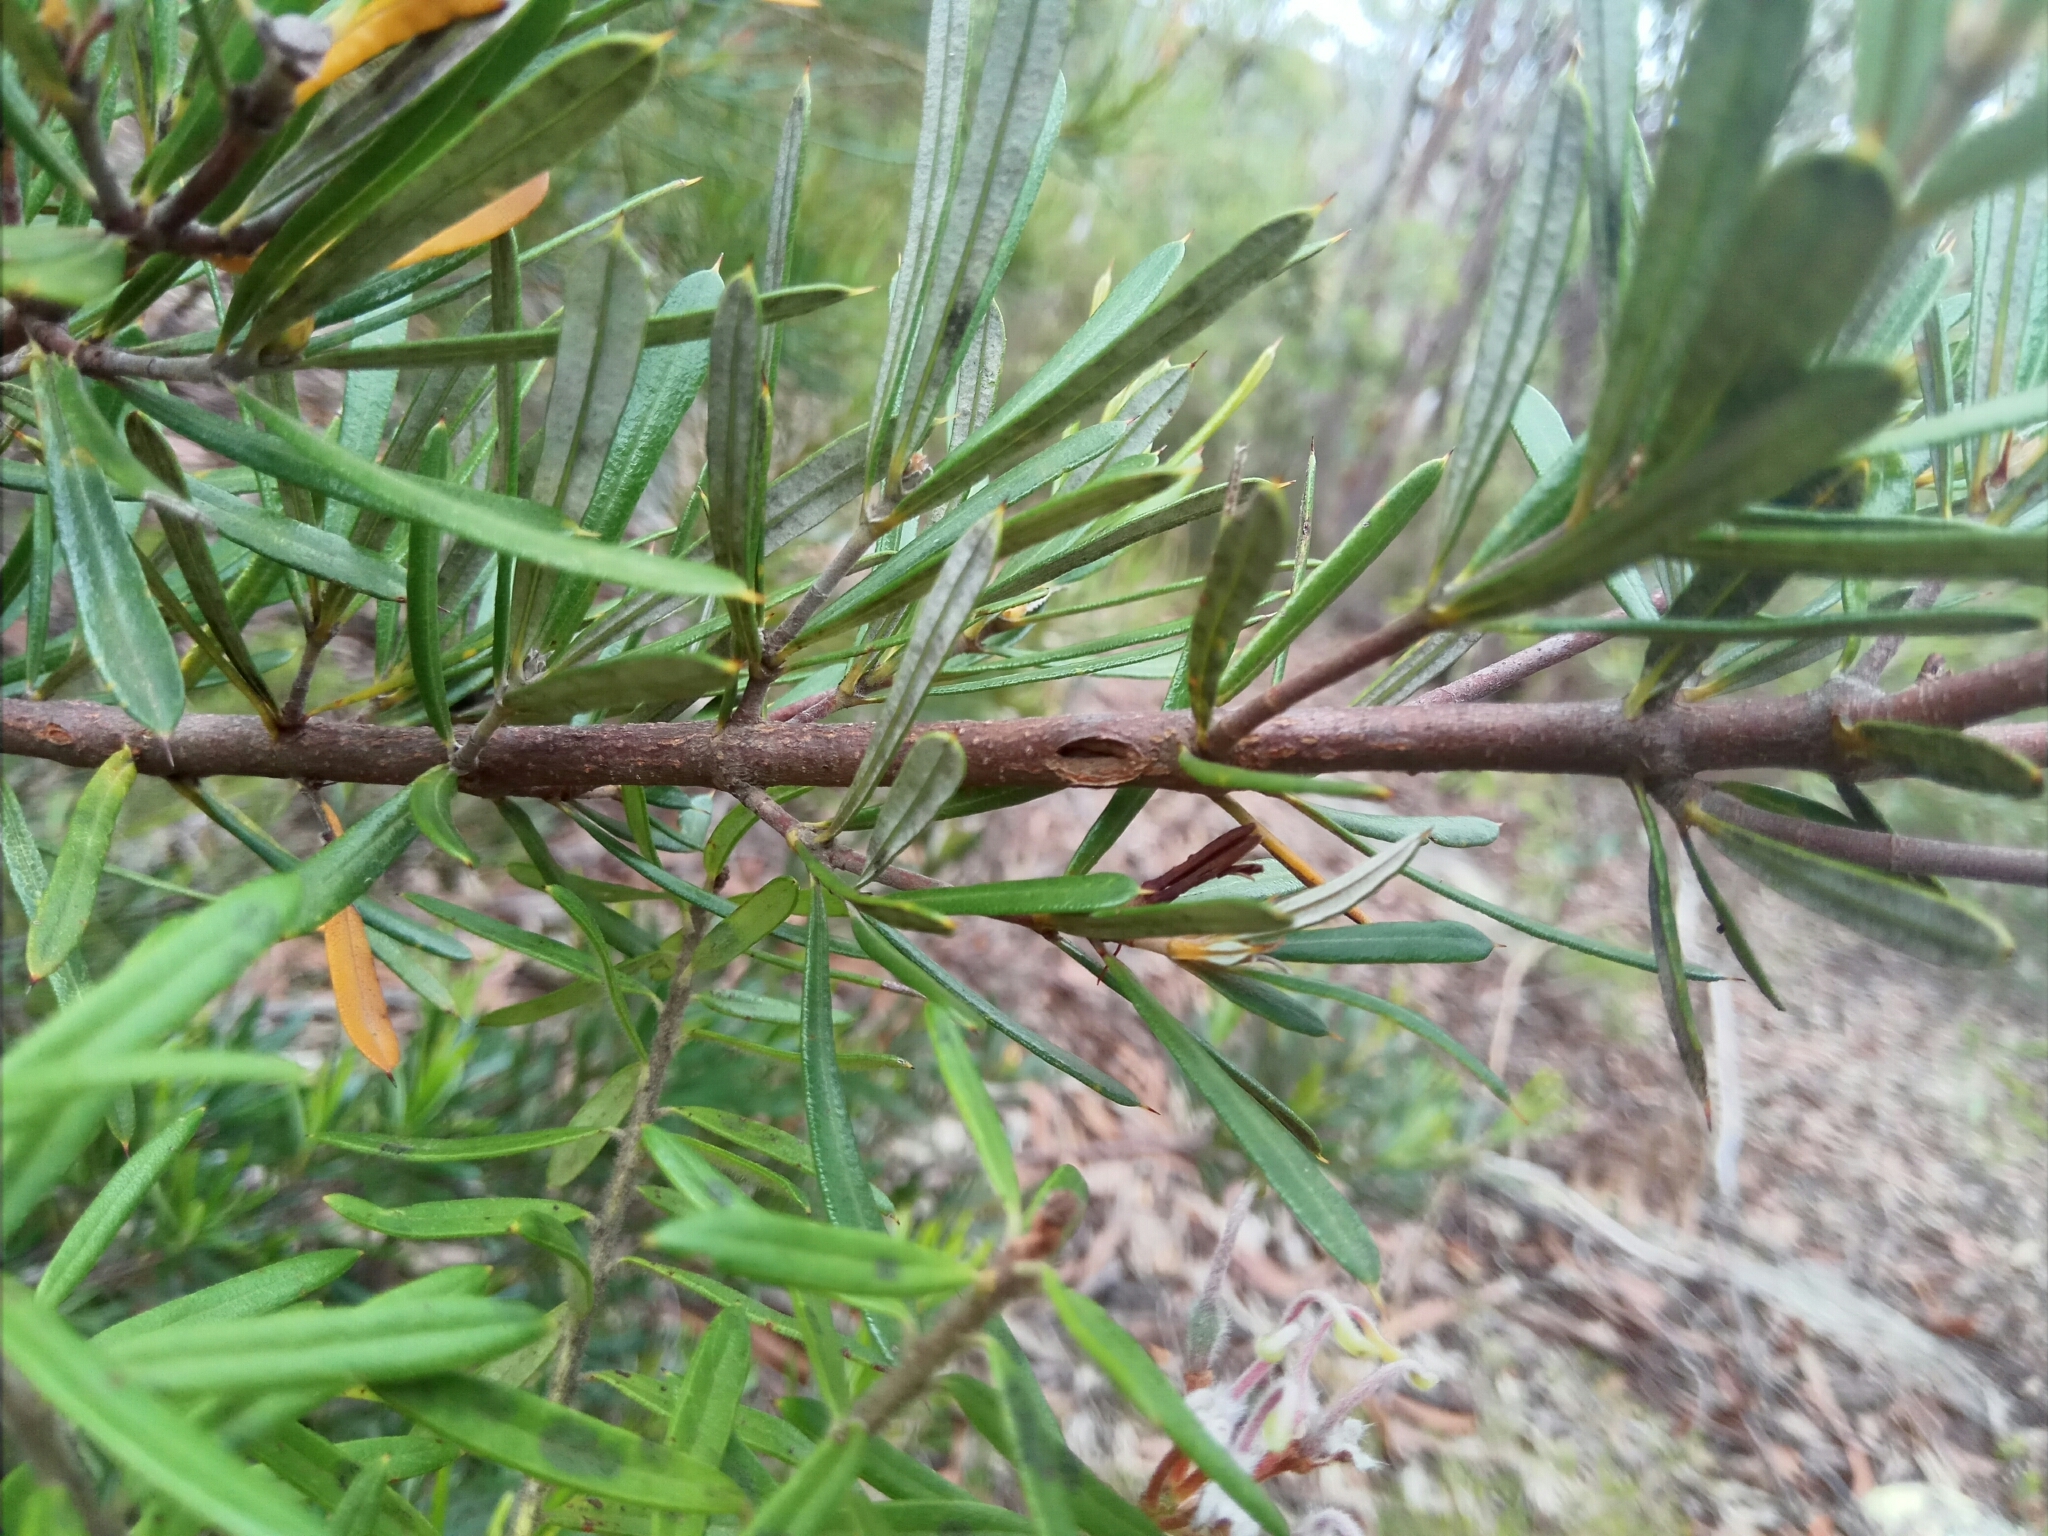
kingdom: Plantae
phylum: Tracheophyta
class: Magnoliopsida
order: Proteales
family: Proteaceae
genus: Lambertia
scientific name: Lambertia formosa
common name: Mountain-devil
